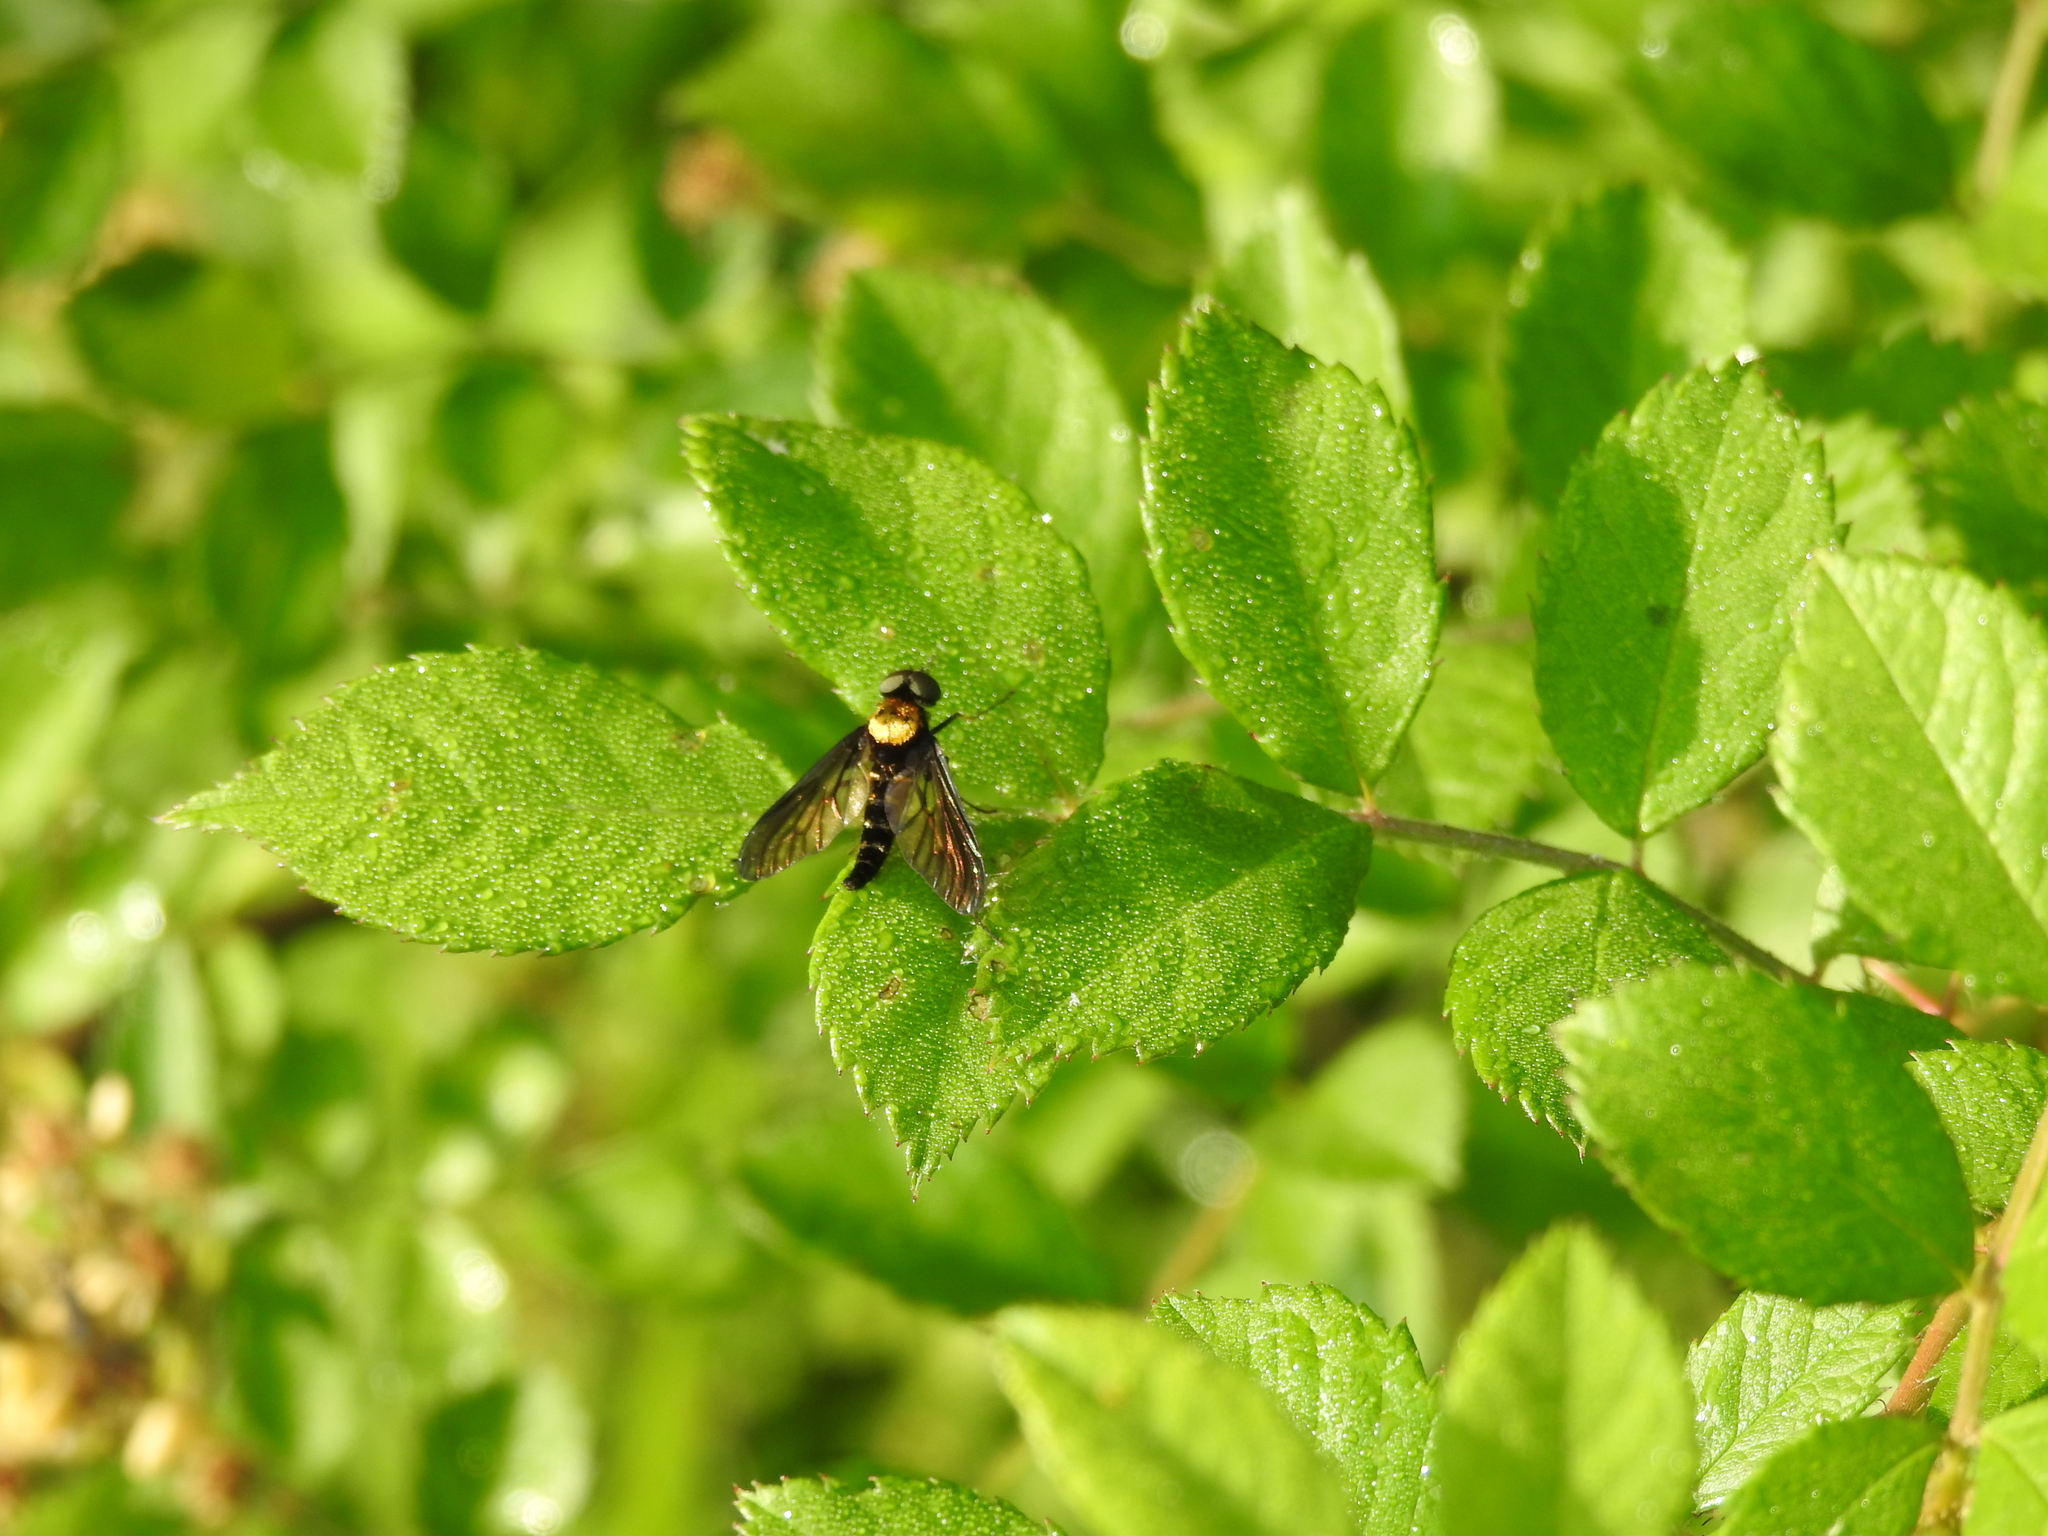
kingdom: Animalia
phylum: Arthropoda
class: Insecta
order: Diptera
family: Rhagionidae
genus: Chrysopilus
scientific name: Chrysopilus thoracicus
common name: Golden-backed snipe fly
